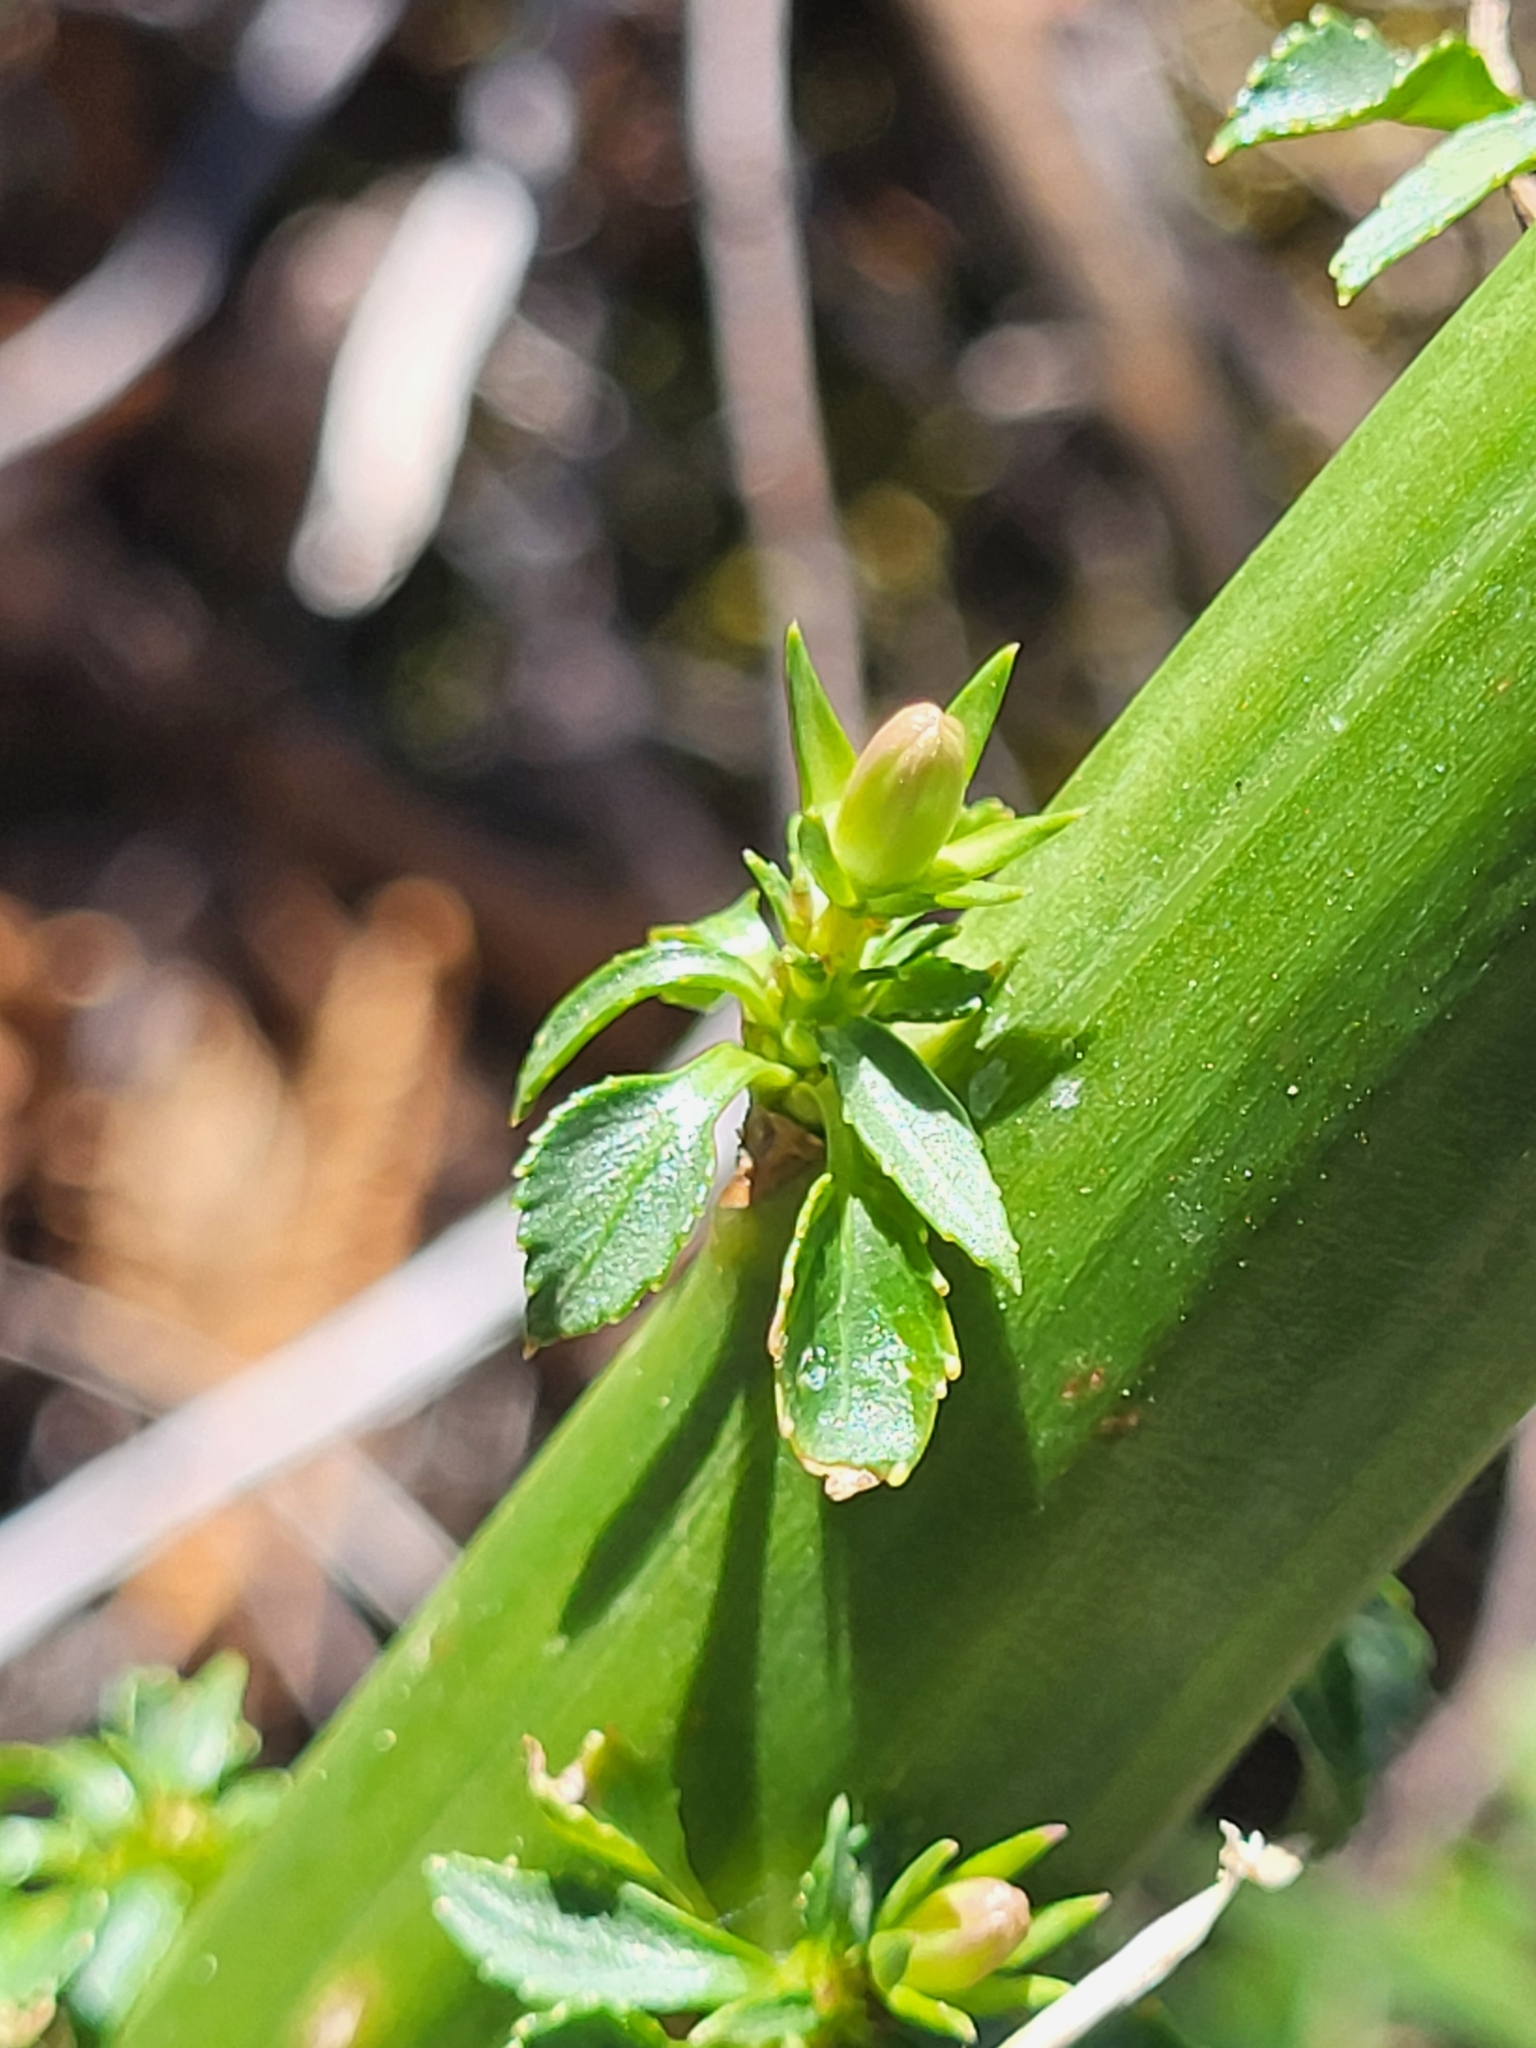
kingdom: Plantae
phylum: Tracheophyta
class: Magnoliopsida
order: Asterales
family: Campanulaceae
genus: Campanula
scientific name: Campanula pyramidalis
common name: Chimney bellflower
